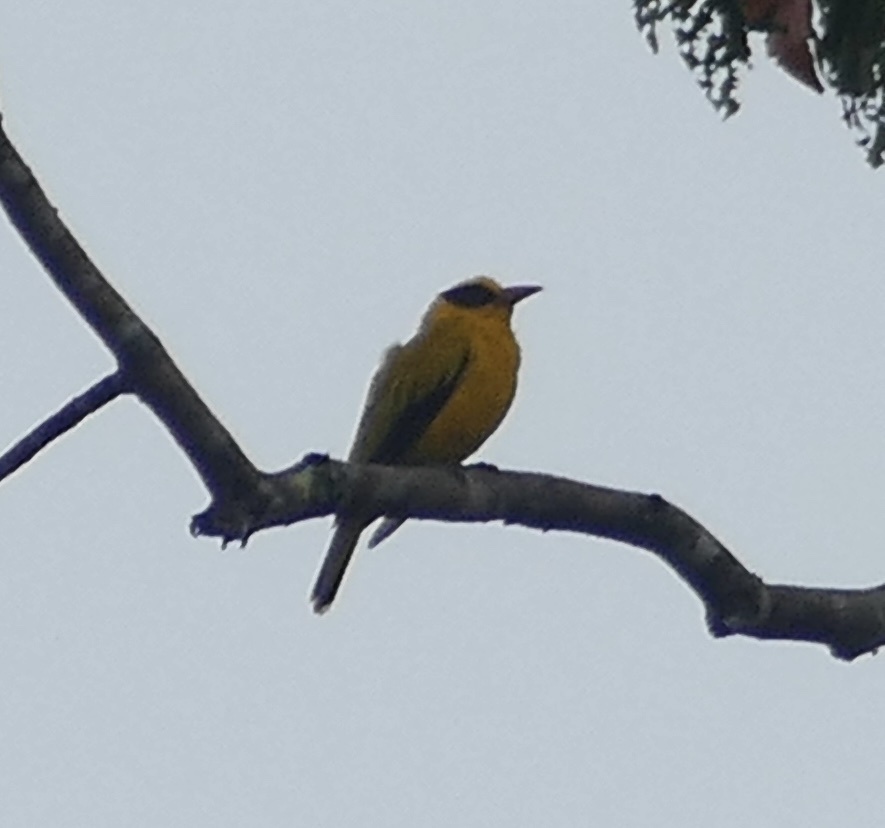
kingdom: Animalia
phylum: Chordata
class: Aves
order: Passeriformes
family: Oriolidae
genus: Oriolus
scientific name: Oriolus chinensis
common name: Black-naped oriole
